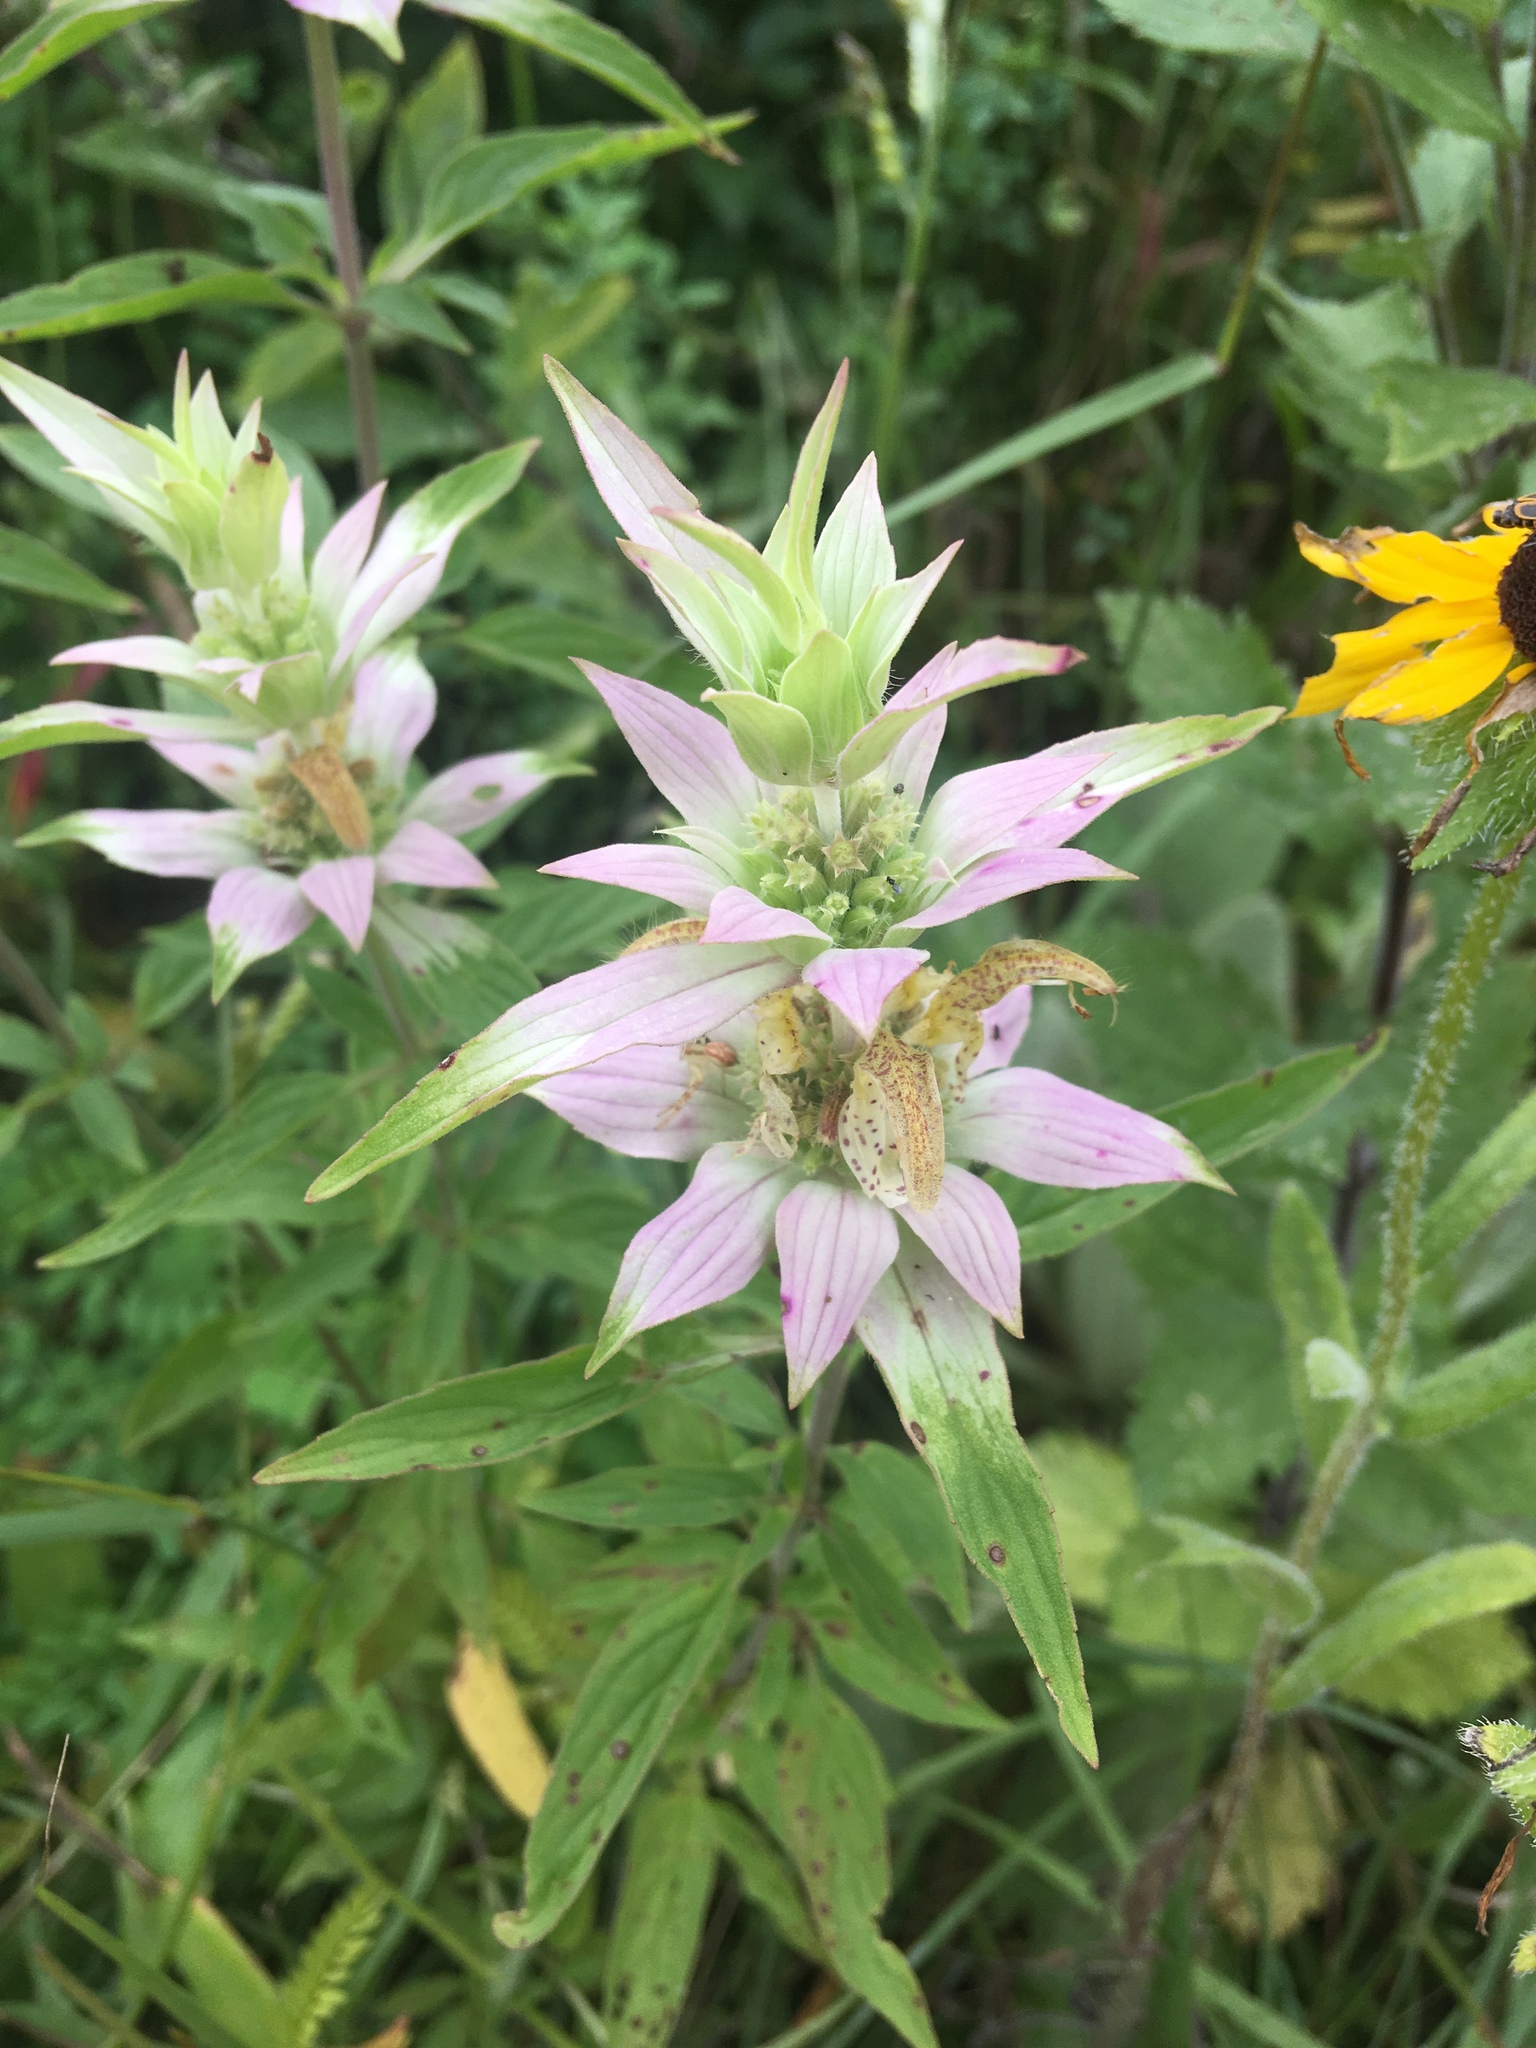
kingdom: Plantae
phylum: Tracheophyta
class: Magnoliopsida
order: Lamiales
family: Lamiaceae
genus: Monarda
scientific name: Monarda punctata
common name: Dotted monarda
